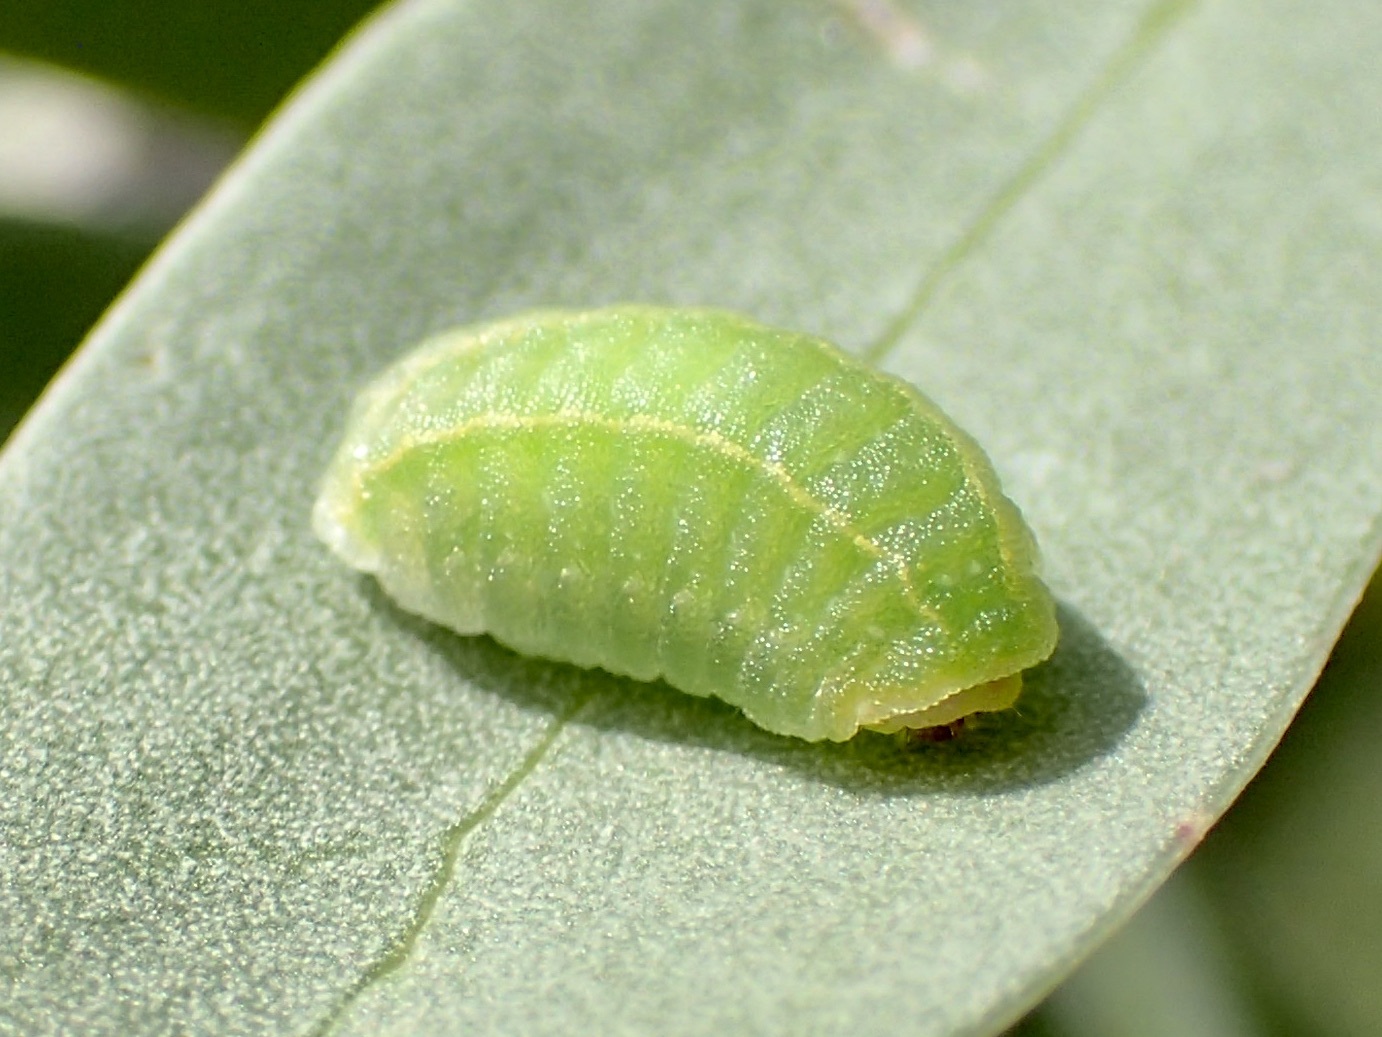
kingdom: Animalia
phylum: Arthropoda
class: Insecta
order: Lepidoptera
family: Limacodidae
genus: Cryptophobetron
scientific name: Cryptophobetron oropeso
